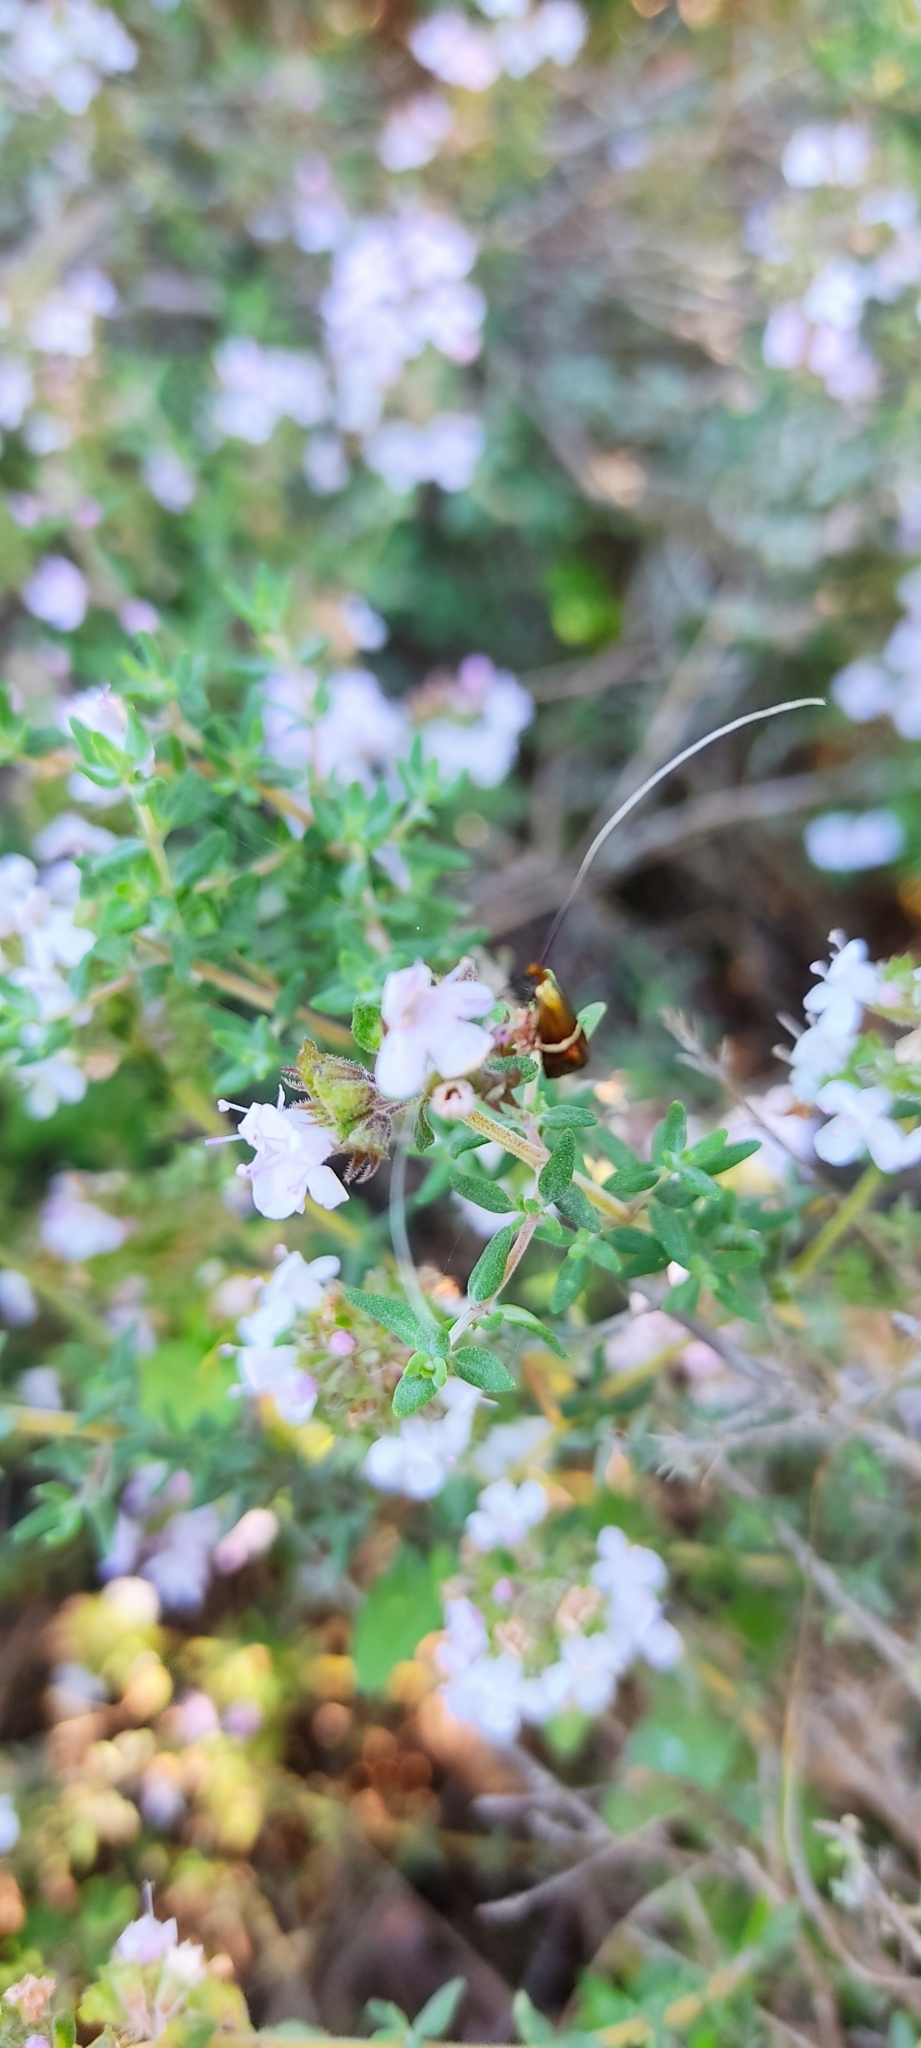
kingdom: Animalia
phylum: Arthropoda
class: Insecta
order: Lepidoptera
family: Adelidae
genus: Adela
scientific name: Adela australis
